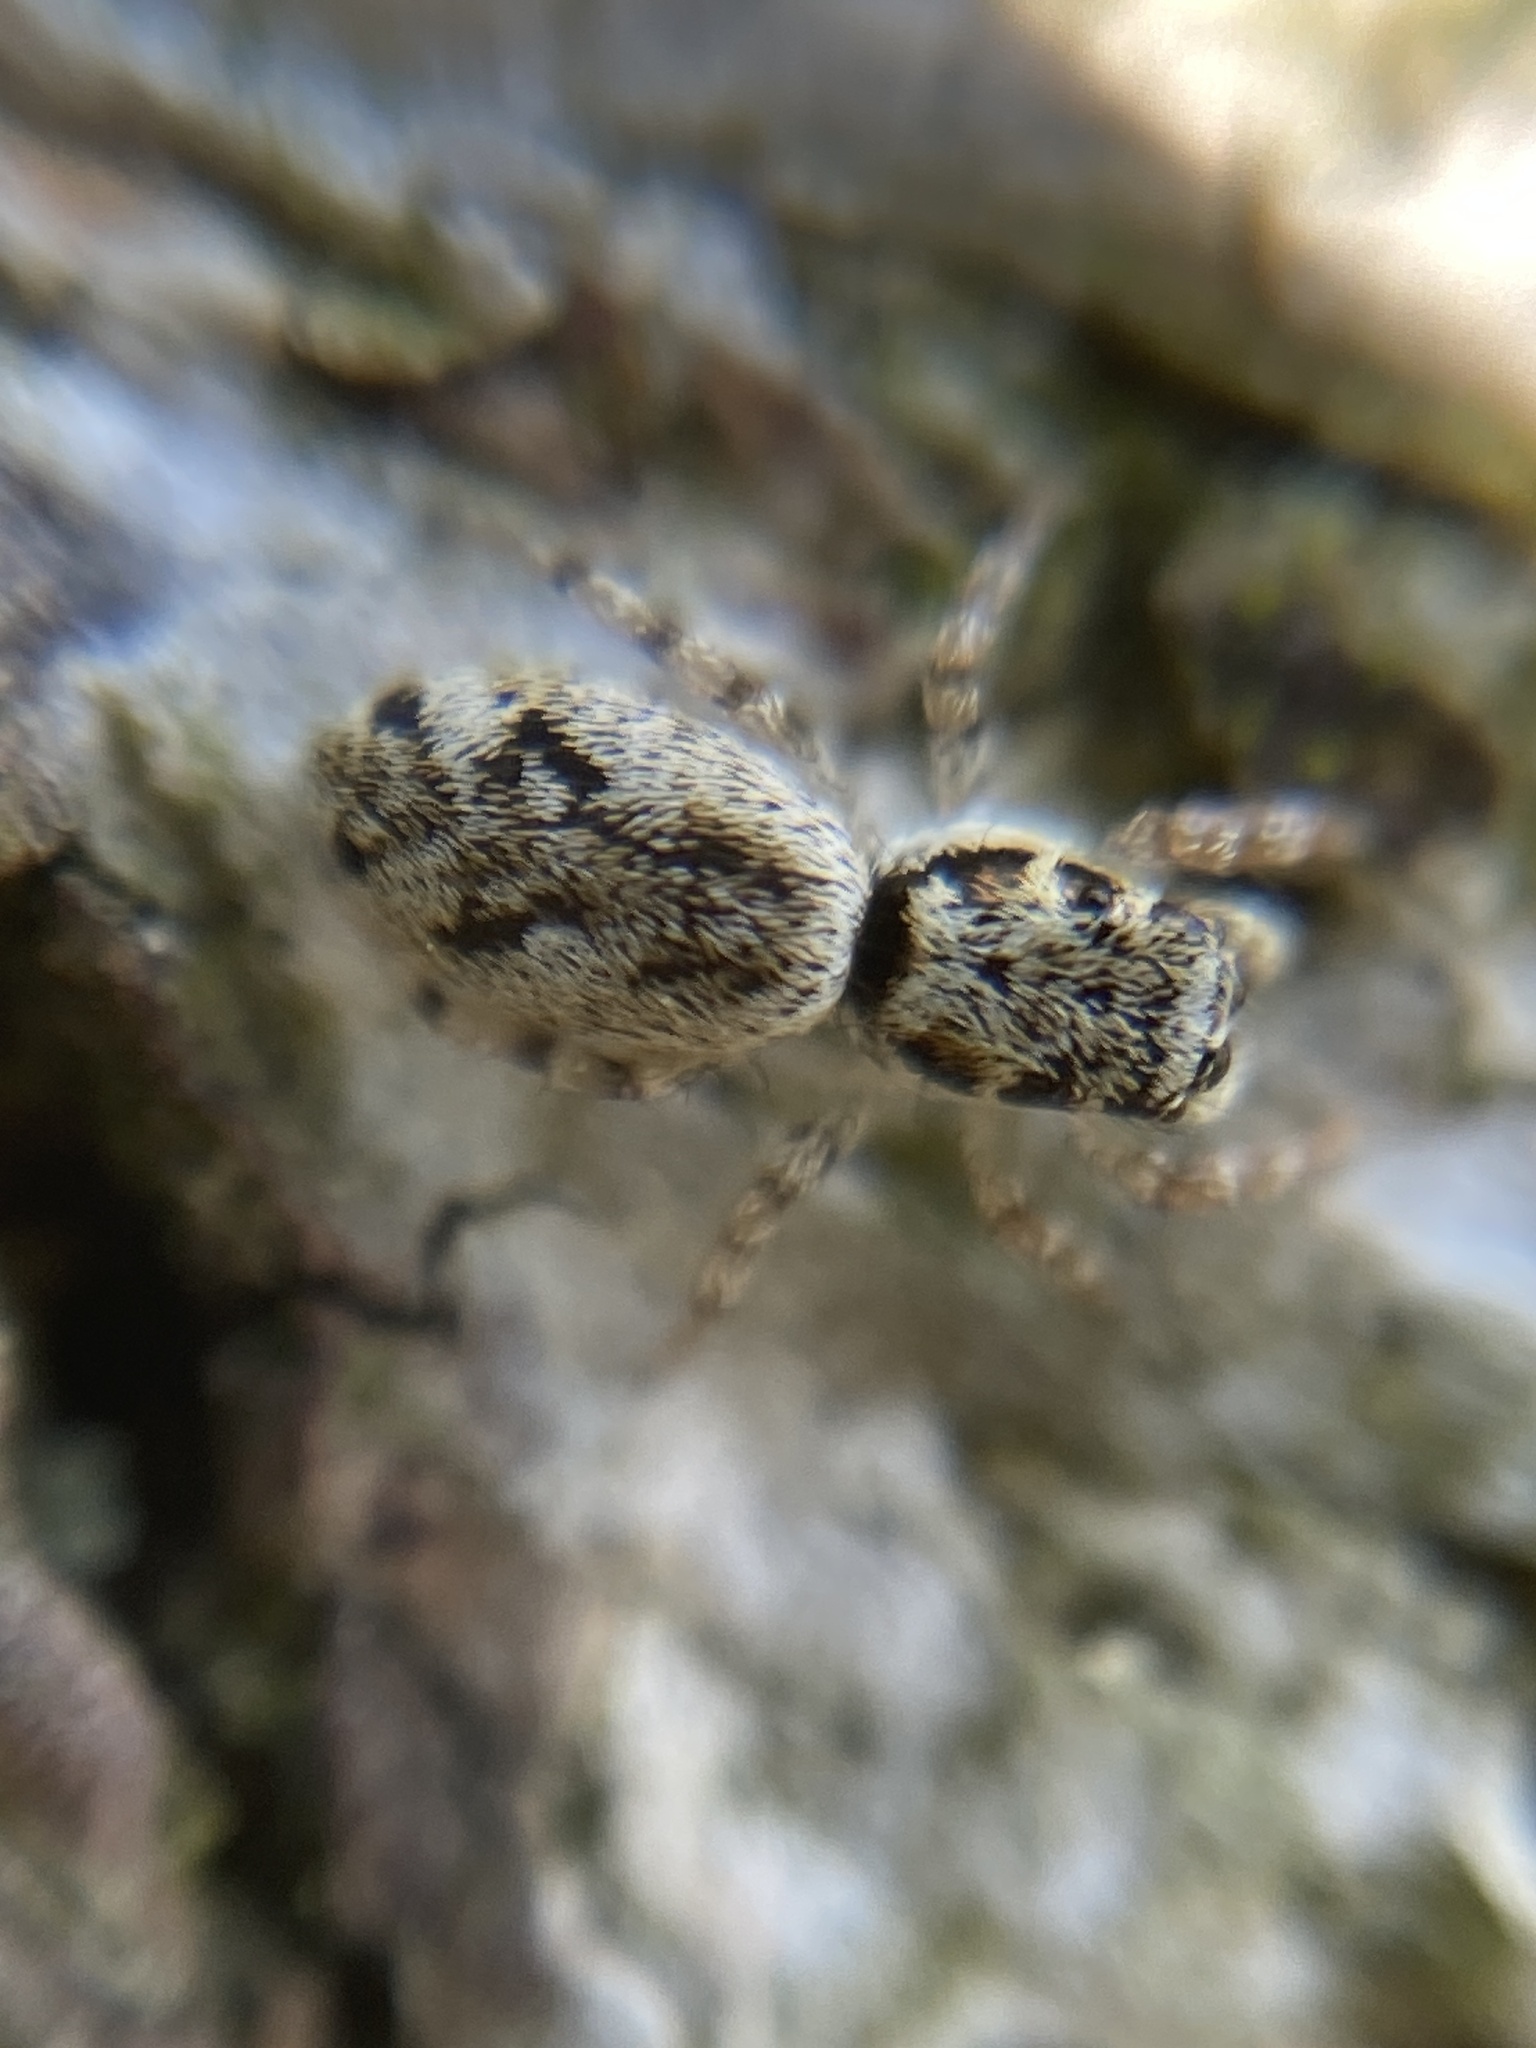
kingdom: Animalia
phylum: Arthropoda
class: Arachnida
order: Araneae
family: Salticidae
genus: Salticus
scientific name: Salticus cingulatus
